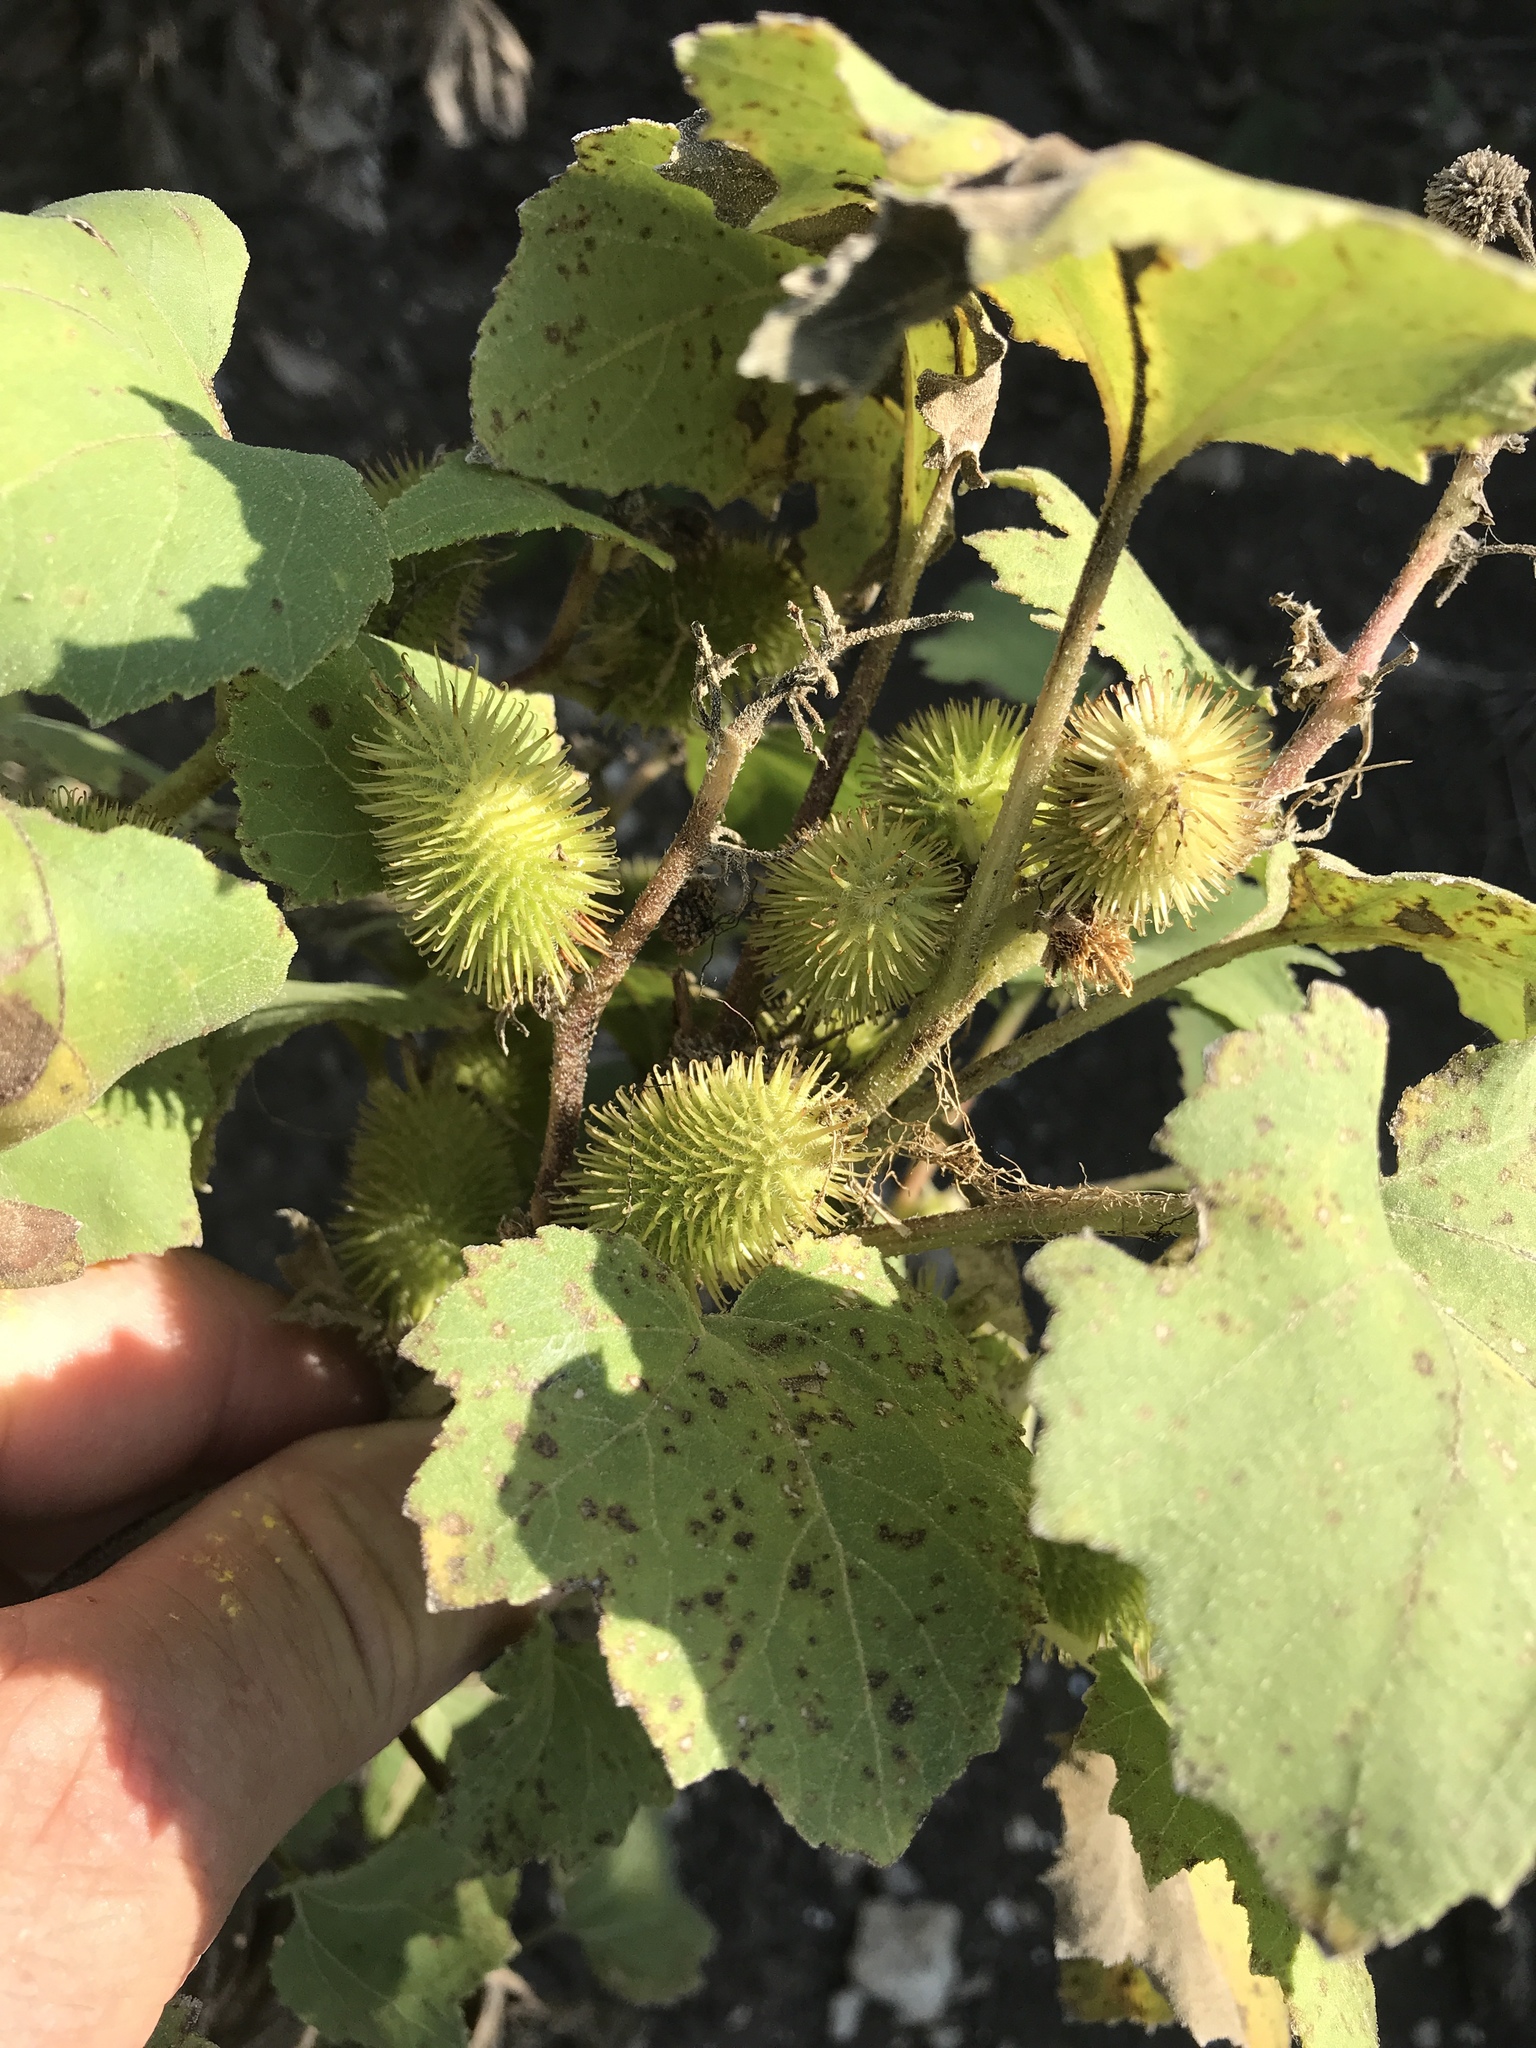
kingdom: Plantae
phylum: Tracheophyta
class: Magnoliopsida
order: Asterales
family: Asteraceae
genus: Xanthium
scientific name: Xanthium strumarium
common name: Rough cocklebur
